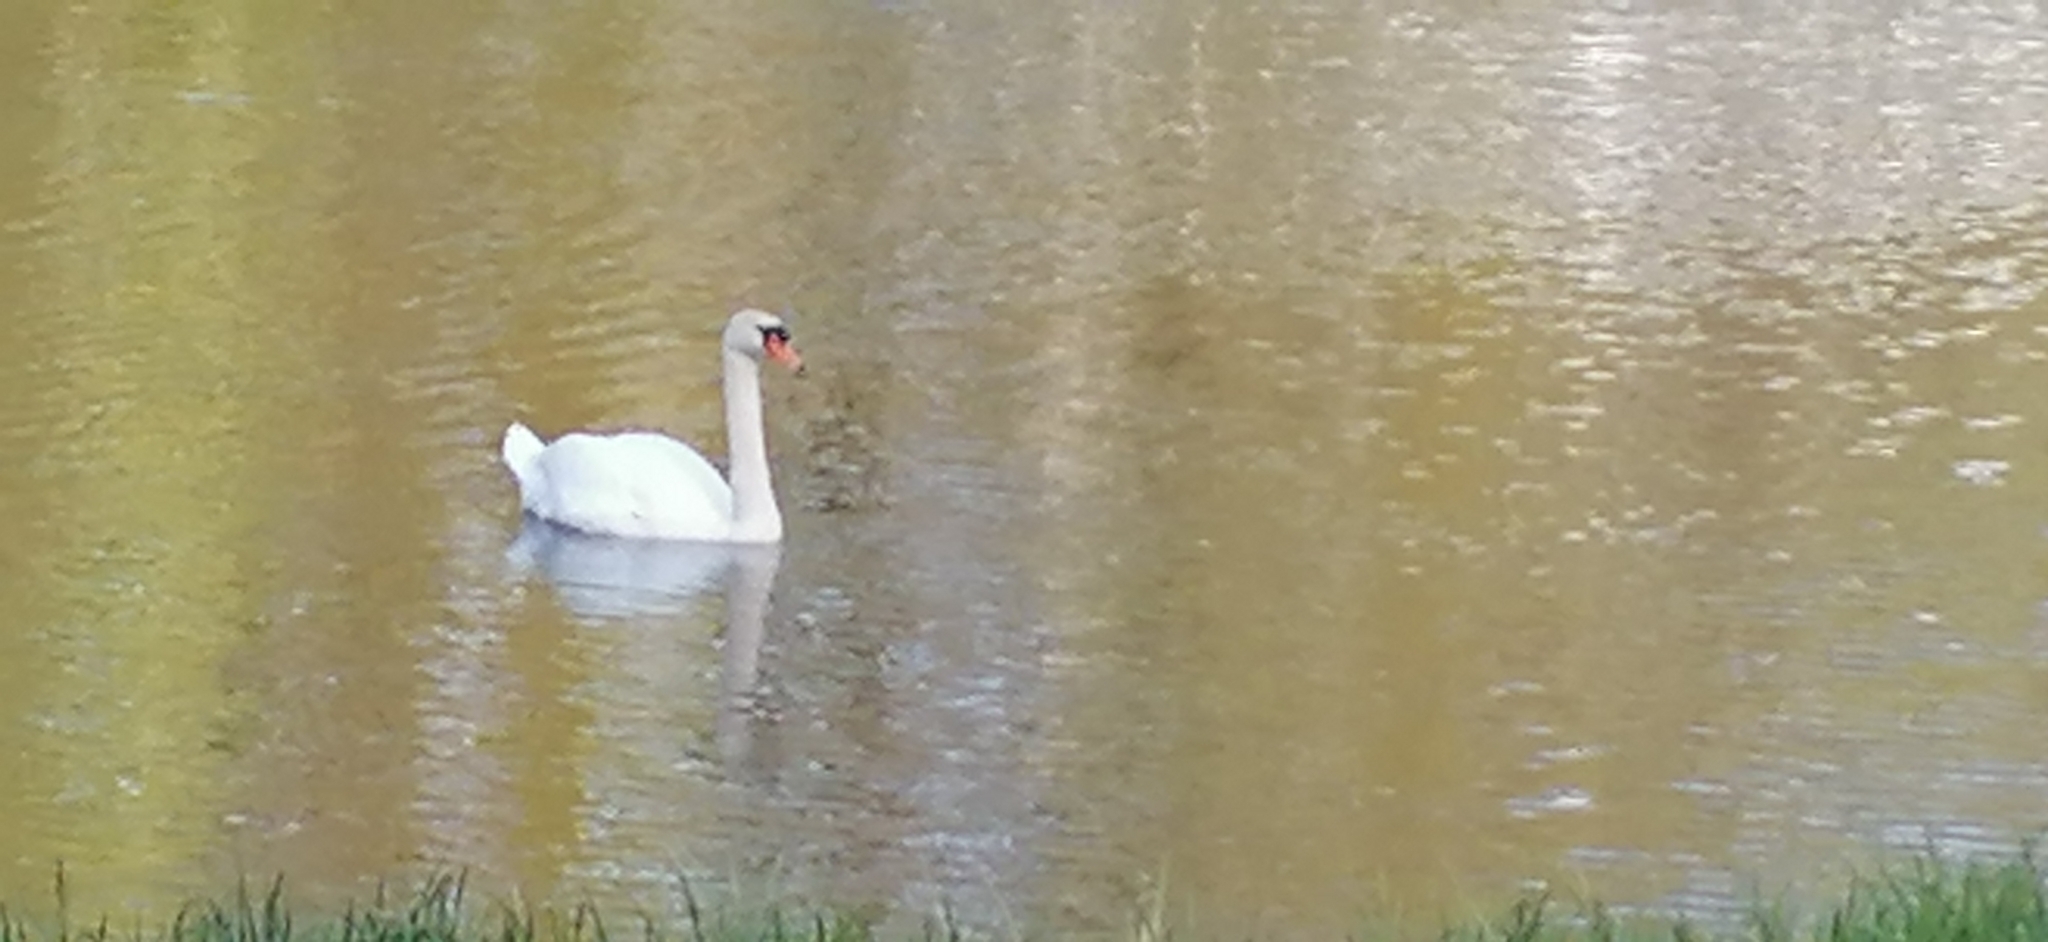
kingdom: Animalia
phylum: Chordata
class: Aves
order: Anseriformes
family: Anatidae
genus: Cygnus
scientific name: Cygnus olor
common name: Mute swan
